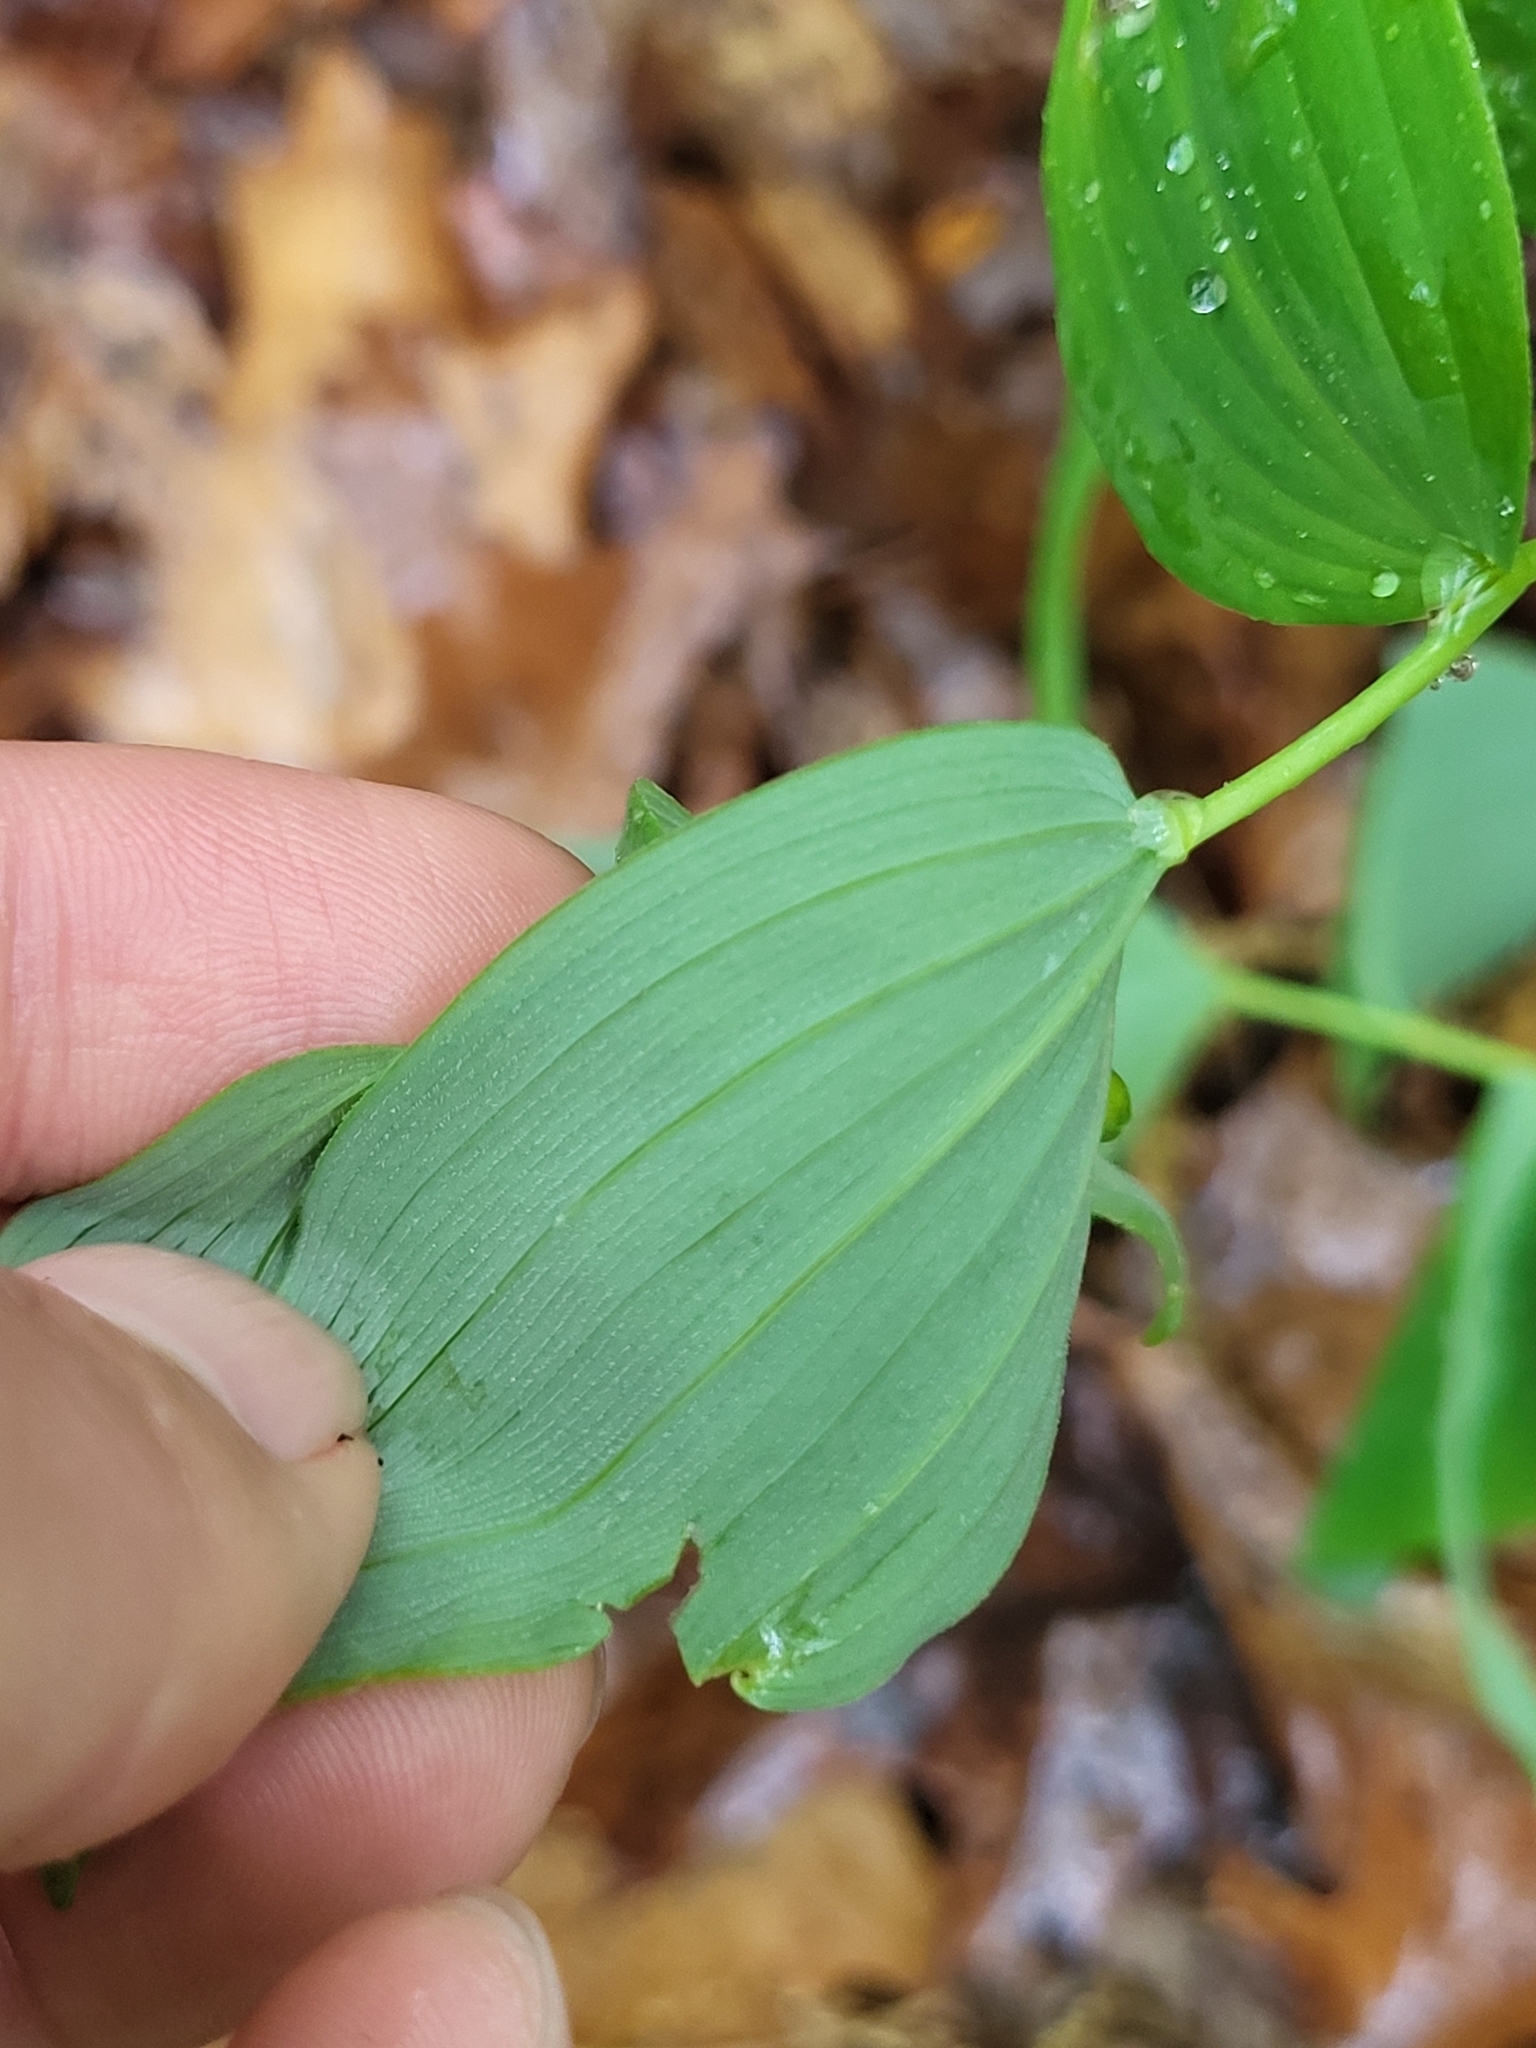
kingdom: Plantae
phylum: Tracheophyta
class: Liliopsida
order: Asparagales
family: Asparagaceae
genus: Polygonatum
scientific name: Polygonatum pubescens
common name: Downy solomon's seal
